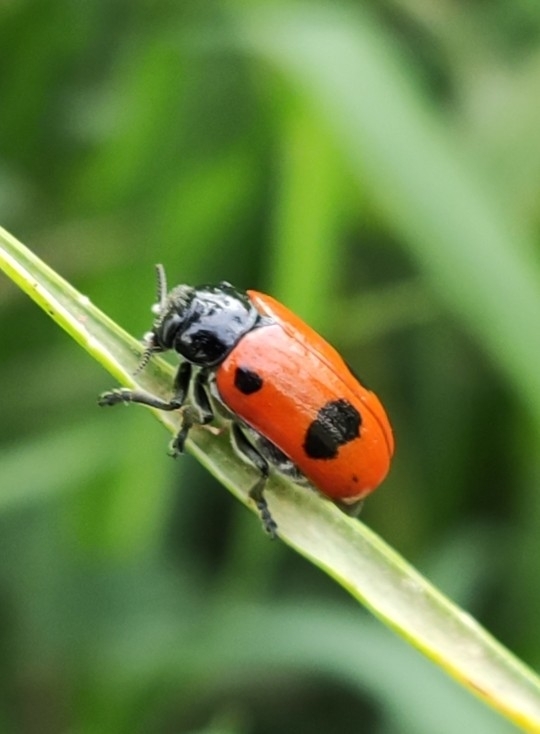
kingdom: Animalia
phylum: Arthropoda
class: Insecta
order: Coleoptera
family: Chrysomelidae
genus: Clytra
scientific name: Clytra laeviuscula
